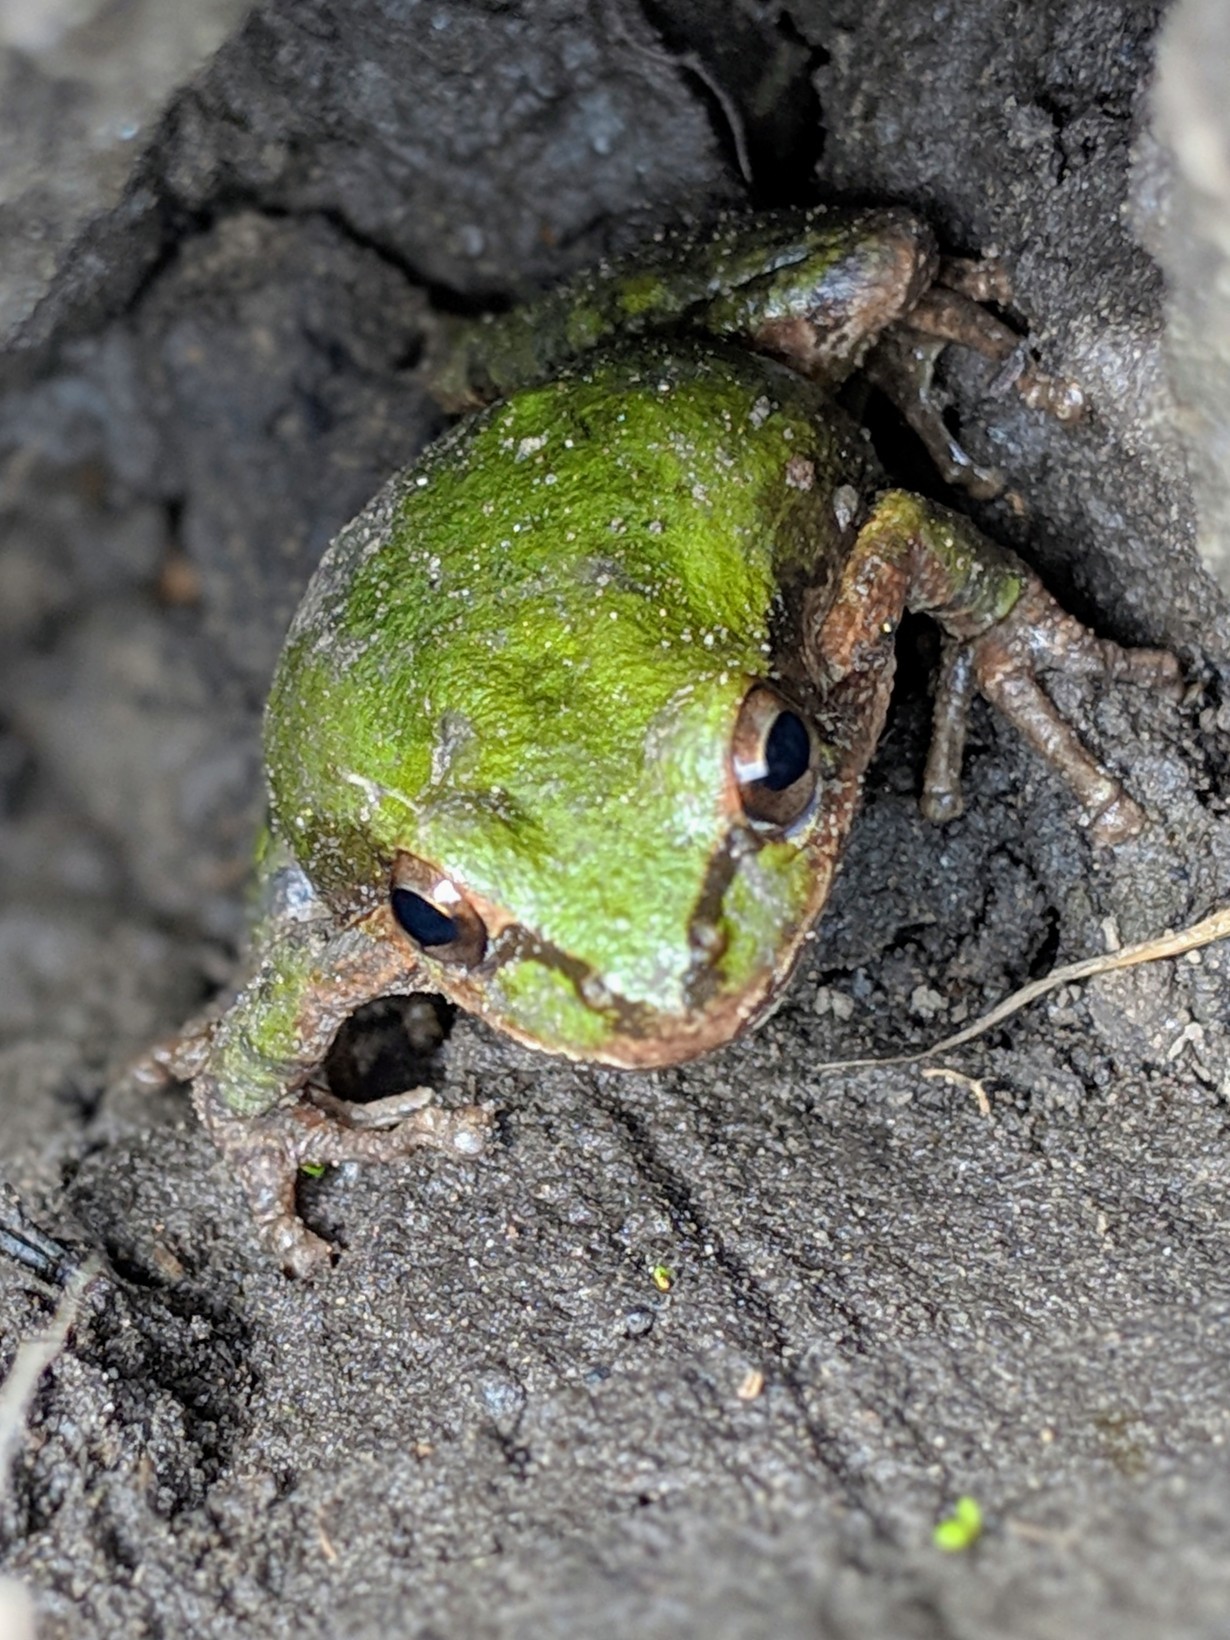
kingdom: Animalia
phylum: Chordata
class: Amphibia
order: Anura
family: Hylidae
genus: Pseudacris
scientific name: Pseudacris regilla
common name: Pacific chorus frog
